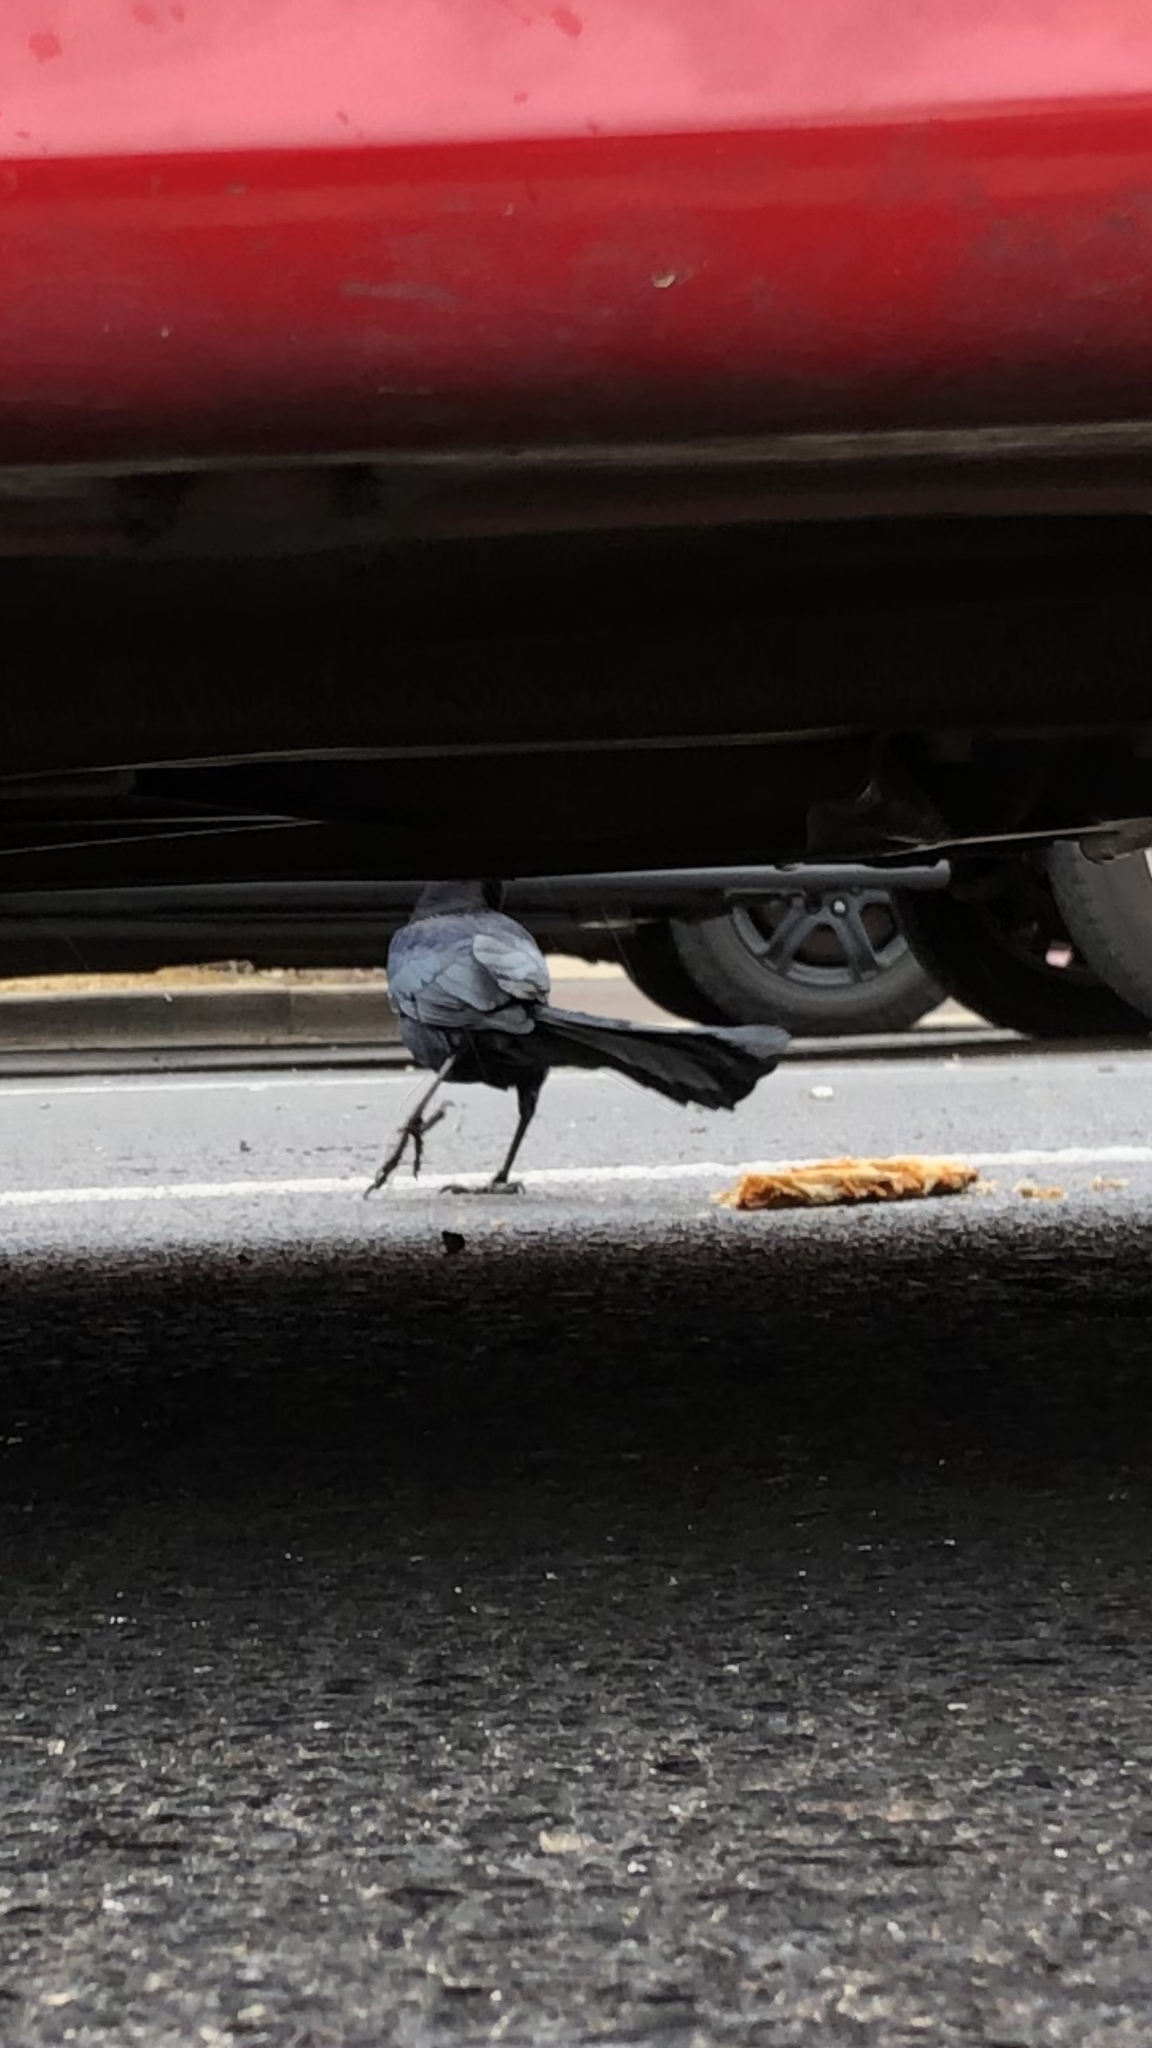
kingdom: Animalia
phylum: Chordata
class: Aves
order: Passeriformes
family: Icteridae
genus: Quiscalus
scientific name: Quiscalus mexicanus
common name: Great-tailed grackle
